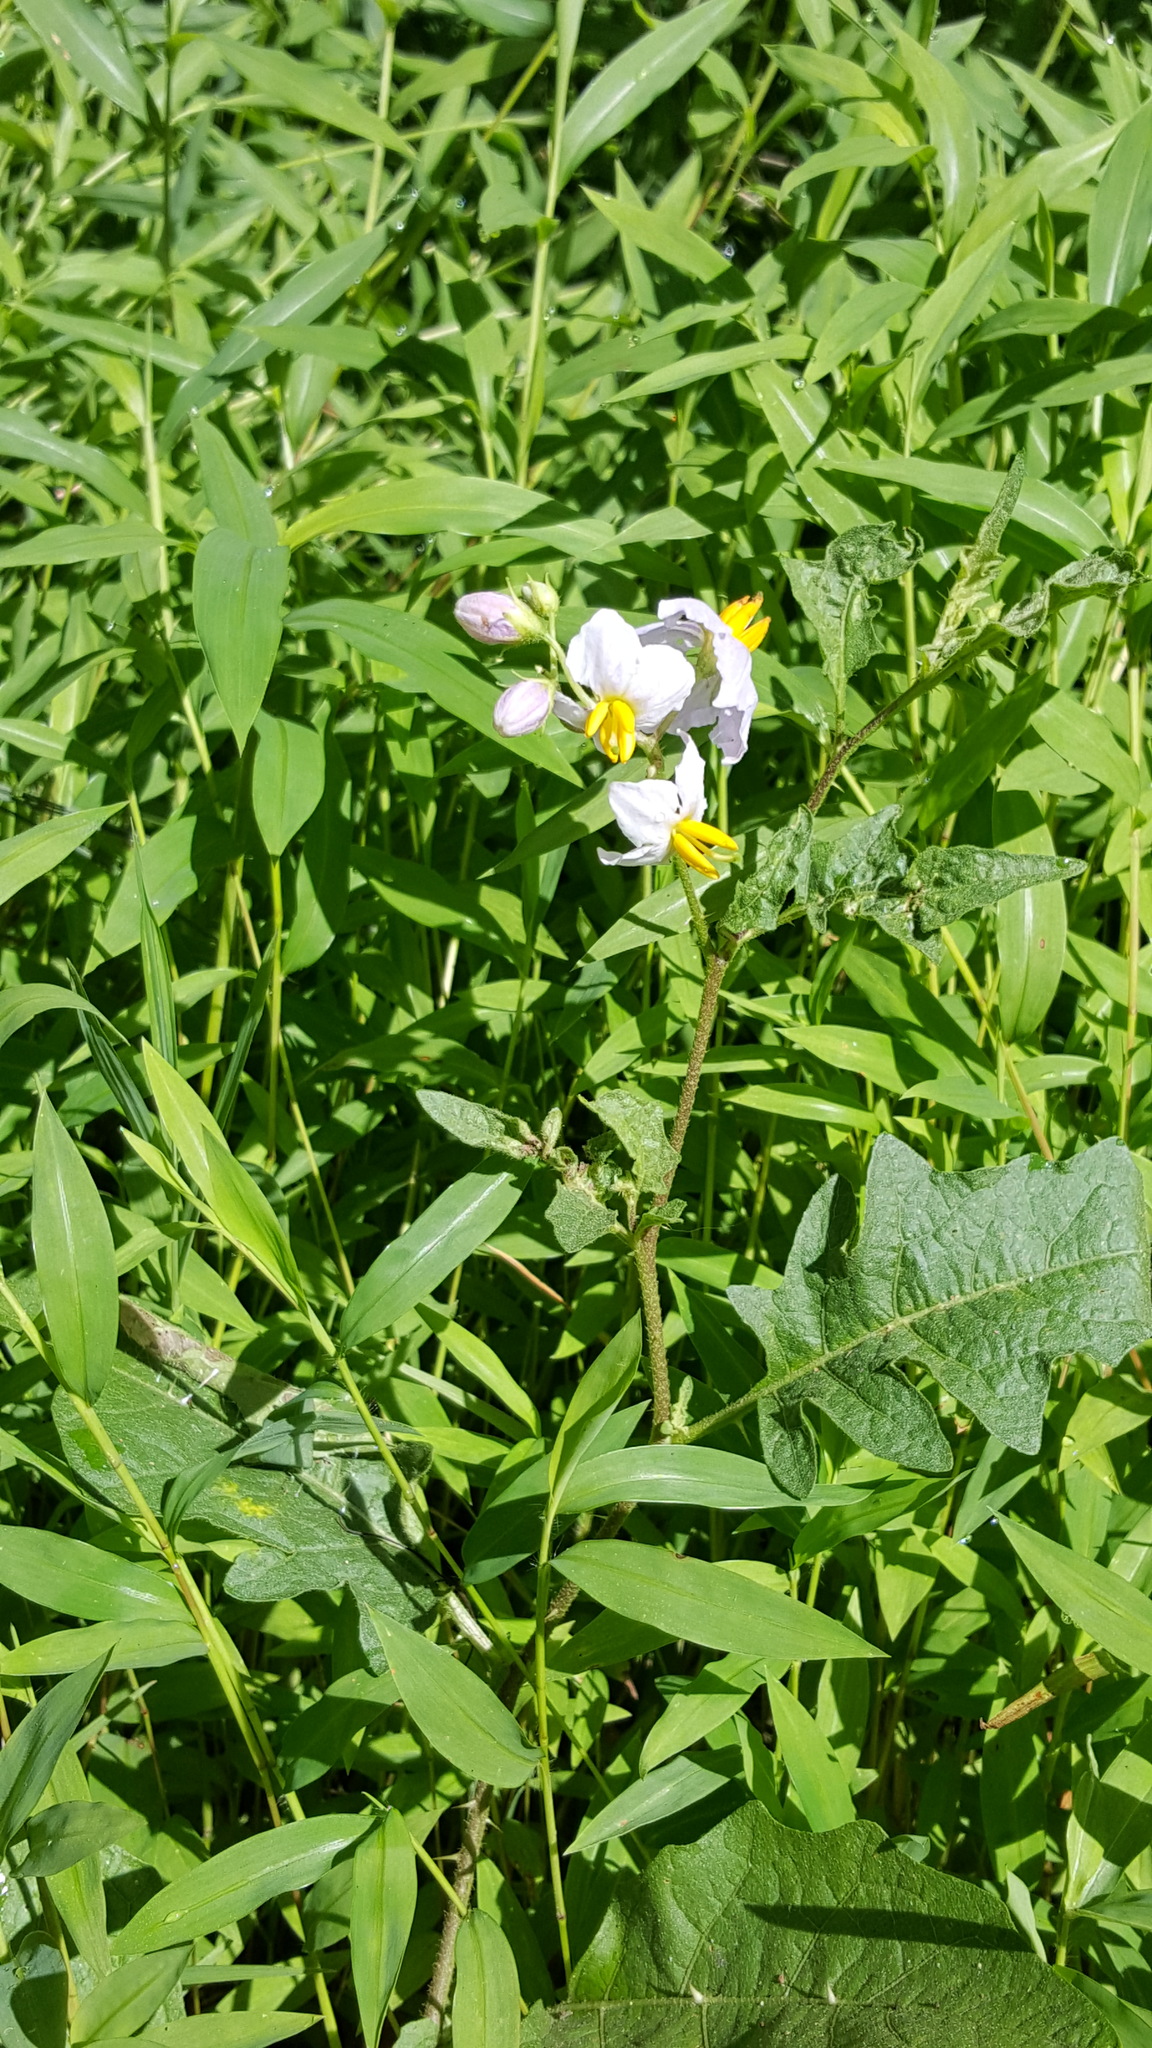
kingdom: Plantae
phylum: Tracheophyta
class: Magnoliopsida
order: Solanales
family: Solanaceae
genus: Solanum
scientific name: Solanum carolinense
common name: Horse-nettle
